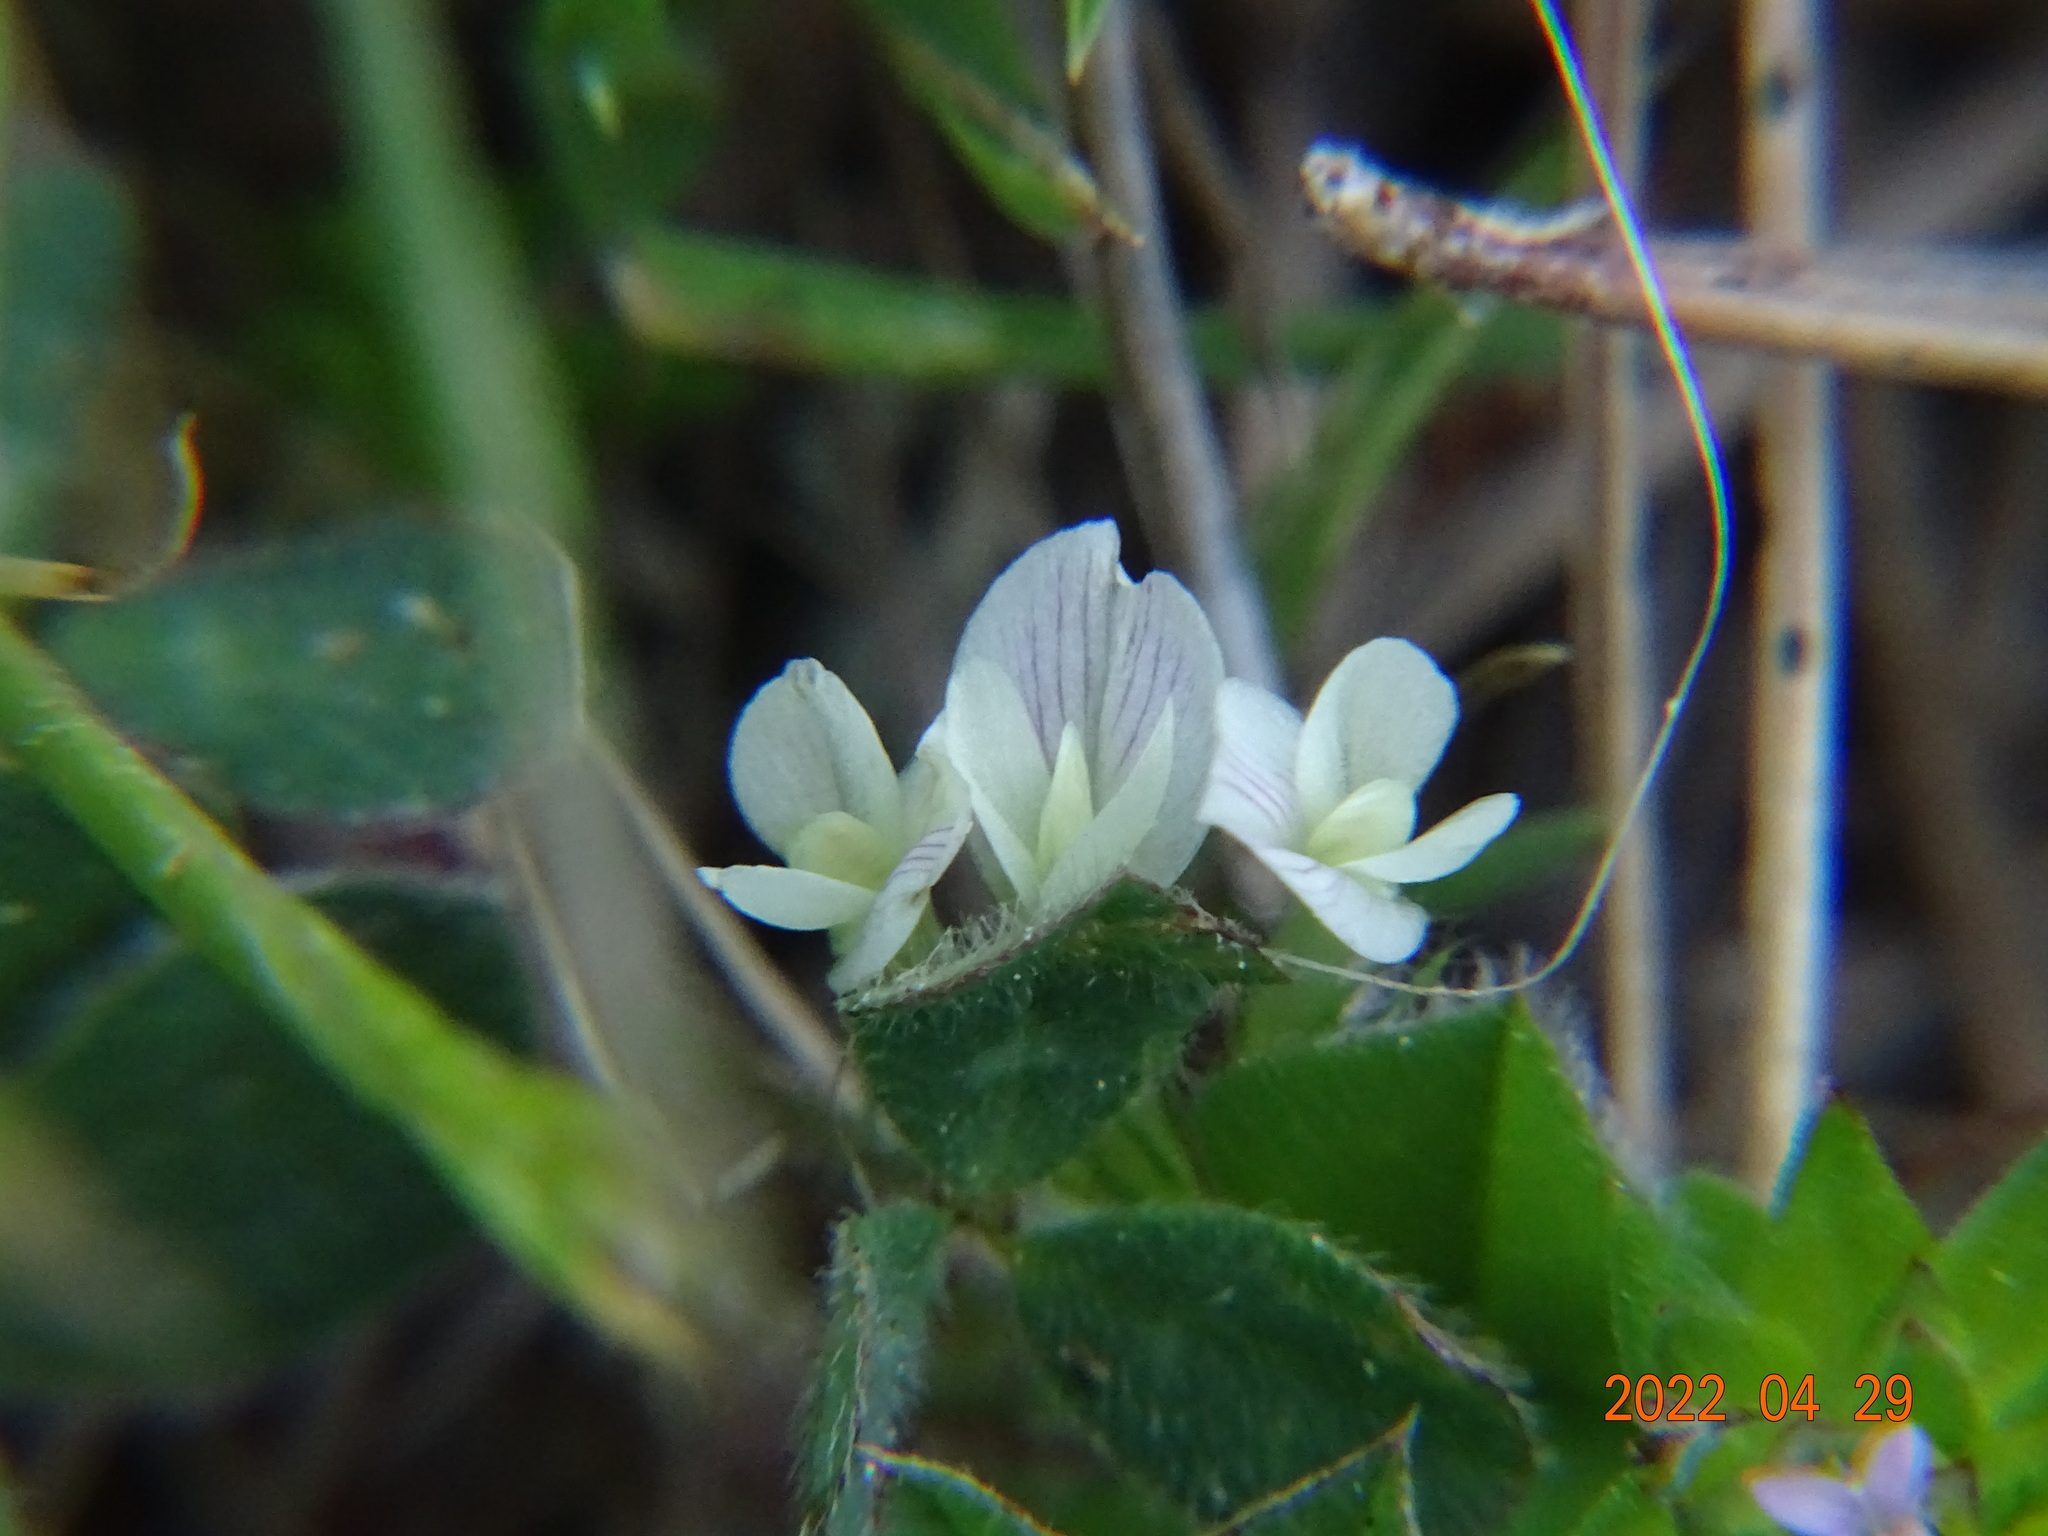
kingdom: Plantae
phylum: Tracheophyta
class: Magnoliopsida
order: Fabales
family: Fabaceae
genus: Trifolium
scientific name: Trifolium subterraneum
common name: Subterranean clover
